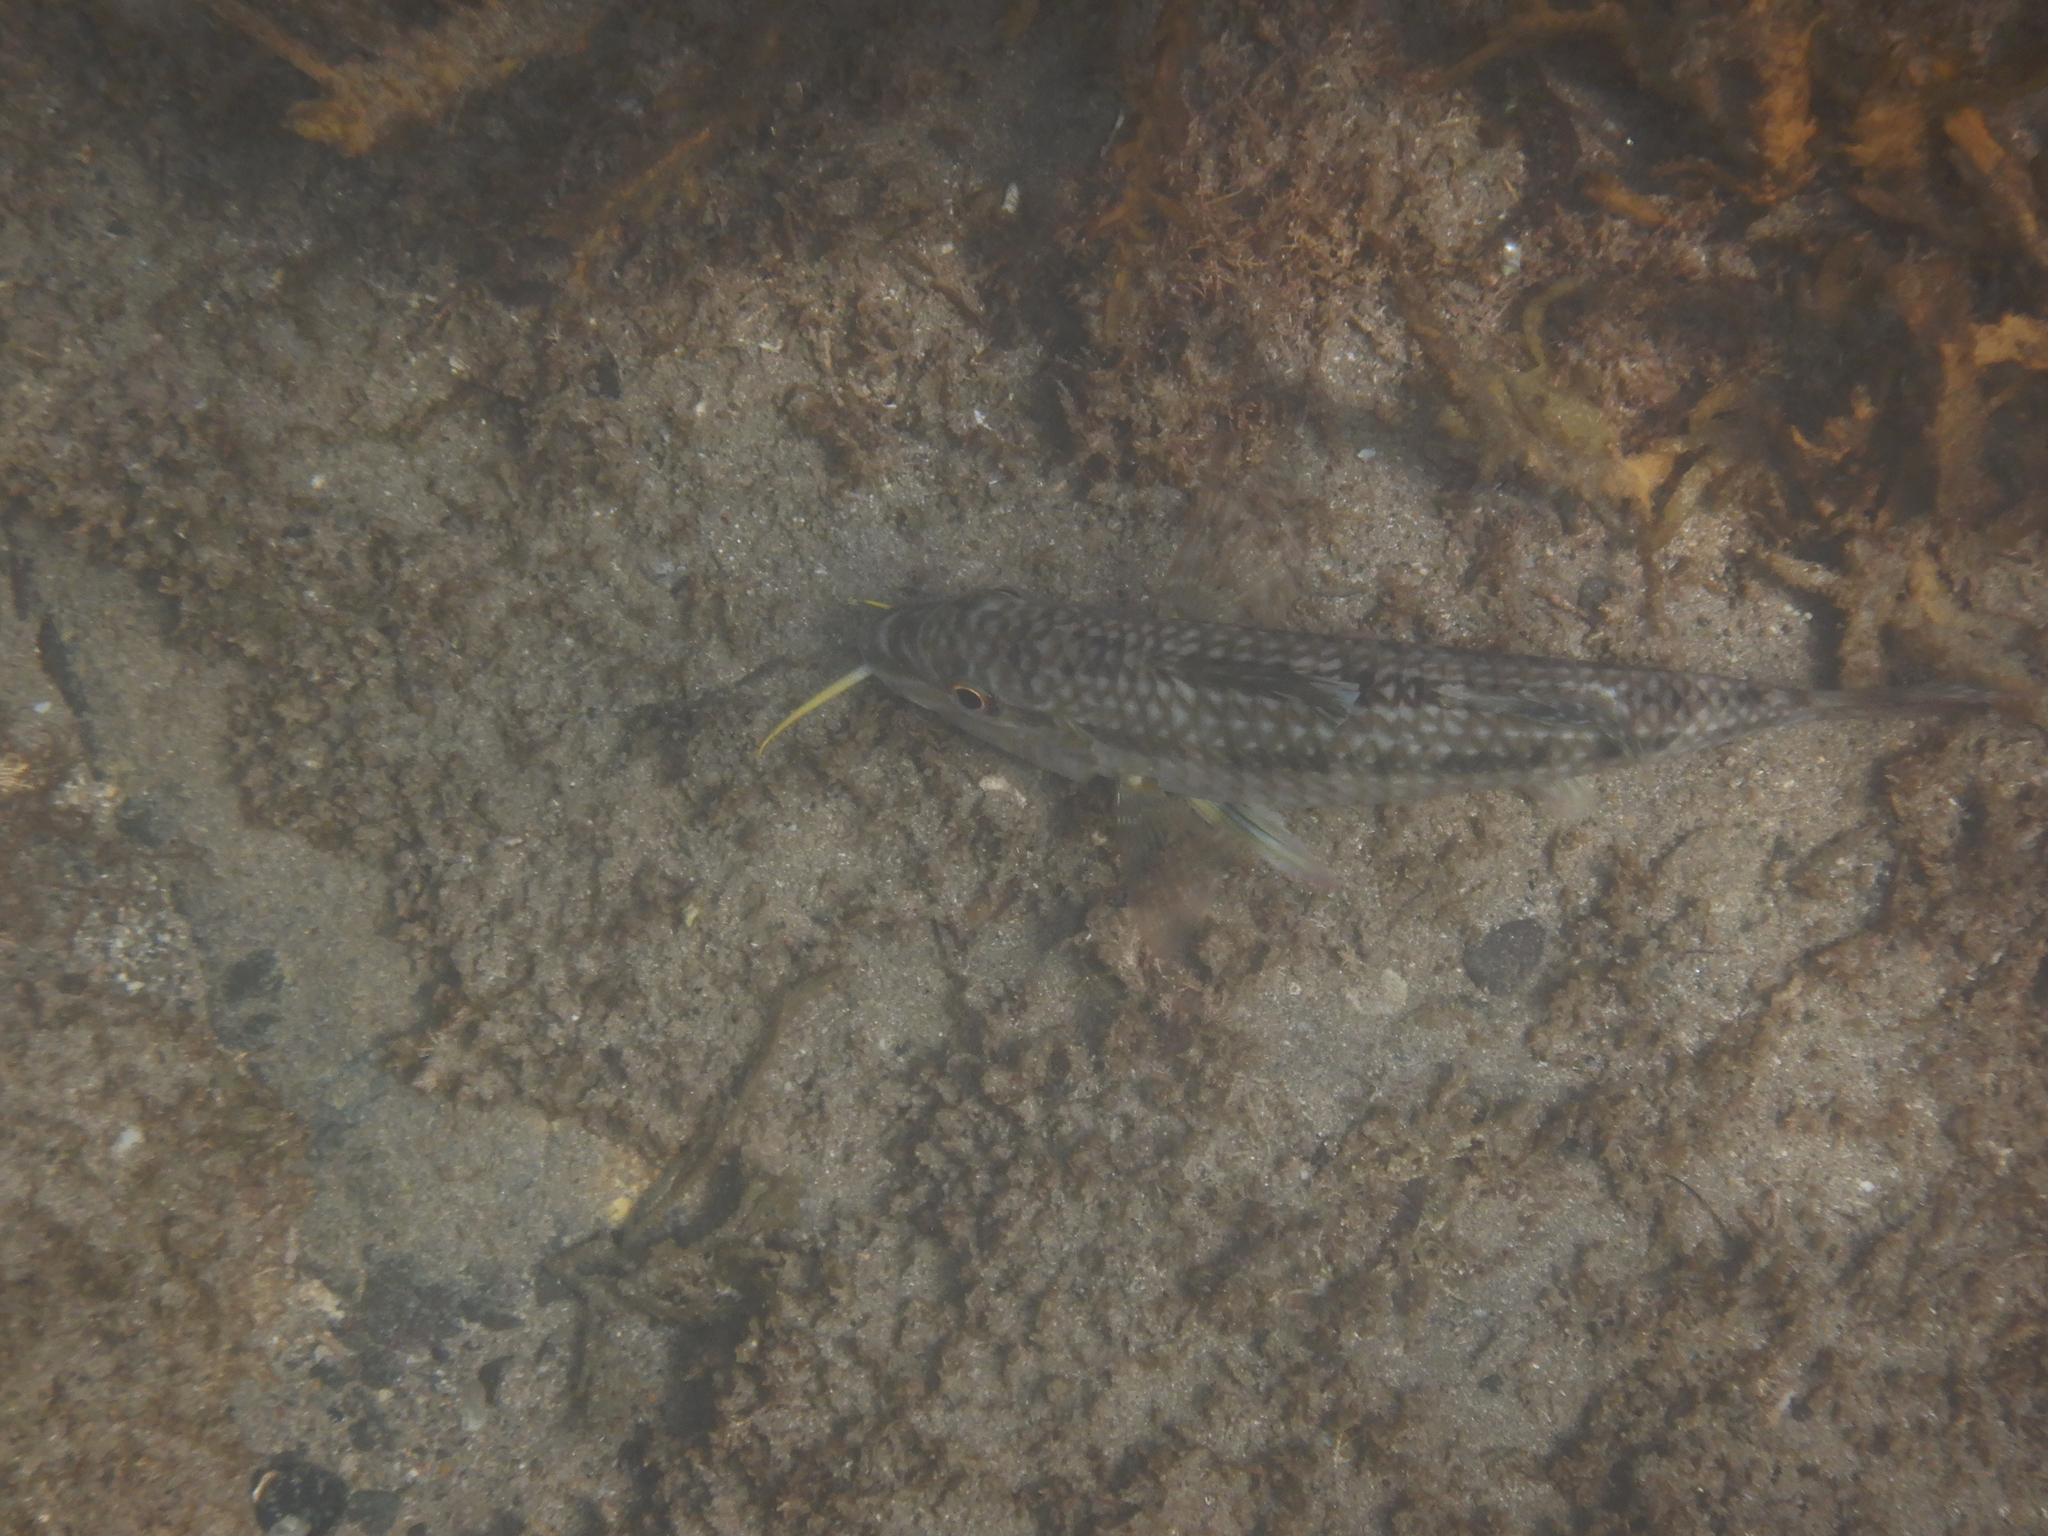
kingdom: Animalia
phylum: Chordata
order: Perciformes
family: Mullidae
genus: Upeneichthys
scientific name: Upeneichthys lineatus
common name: Red mullet
